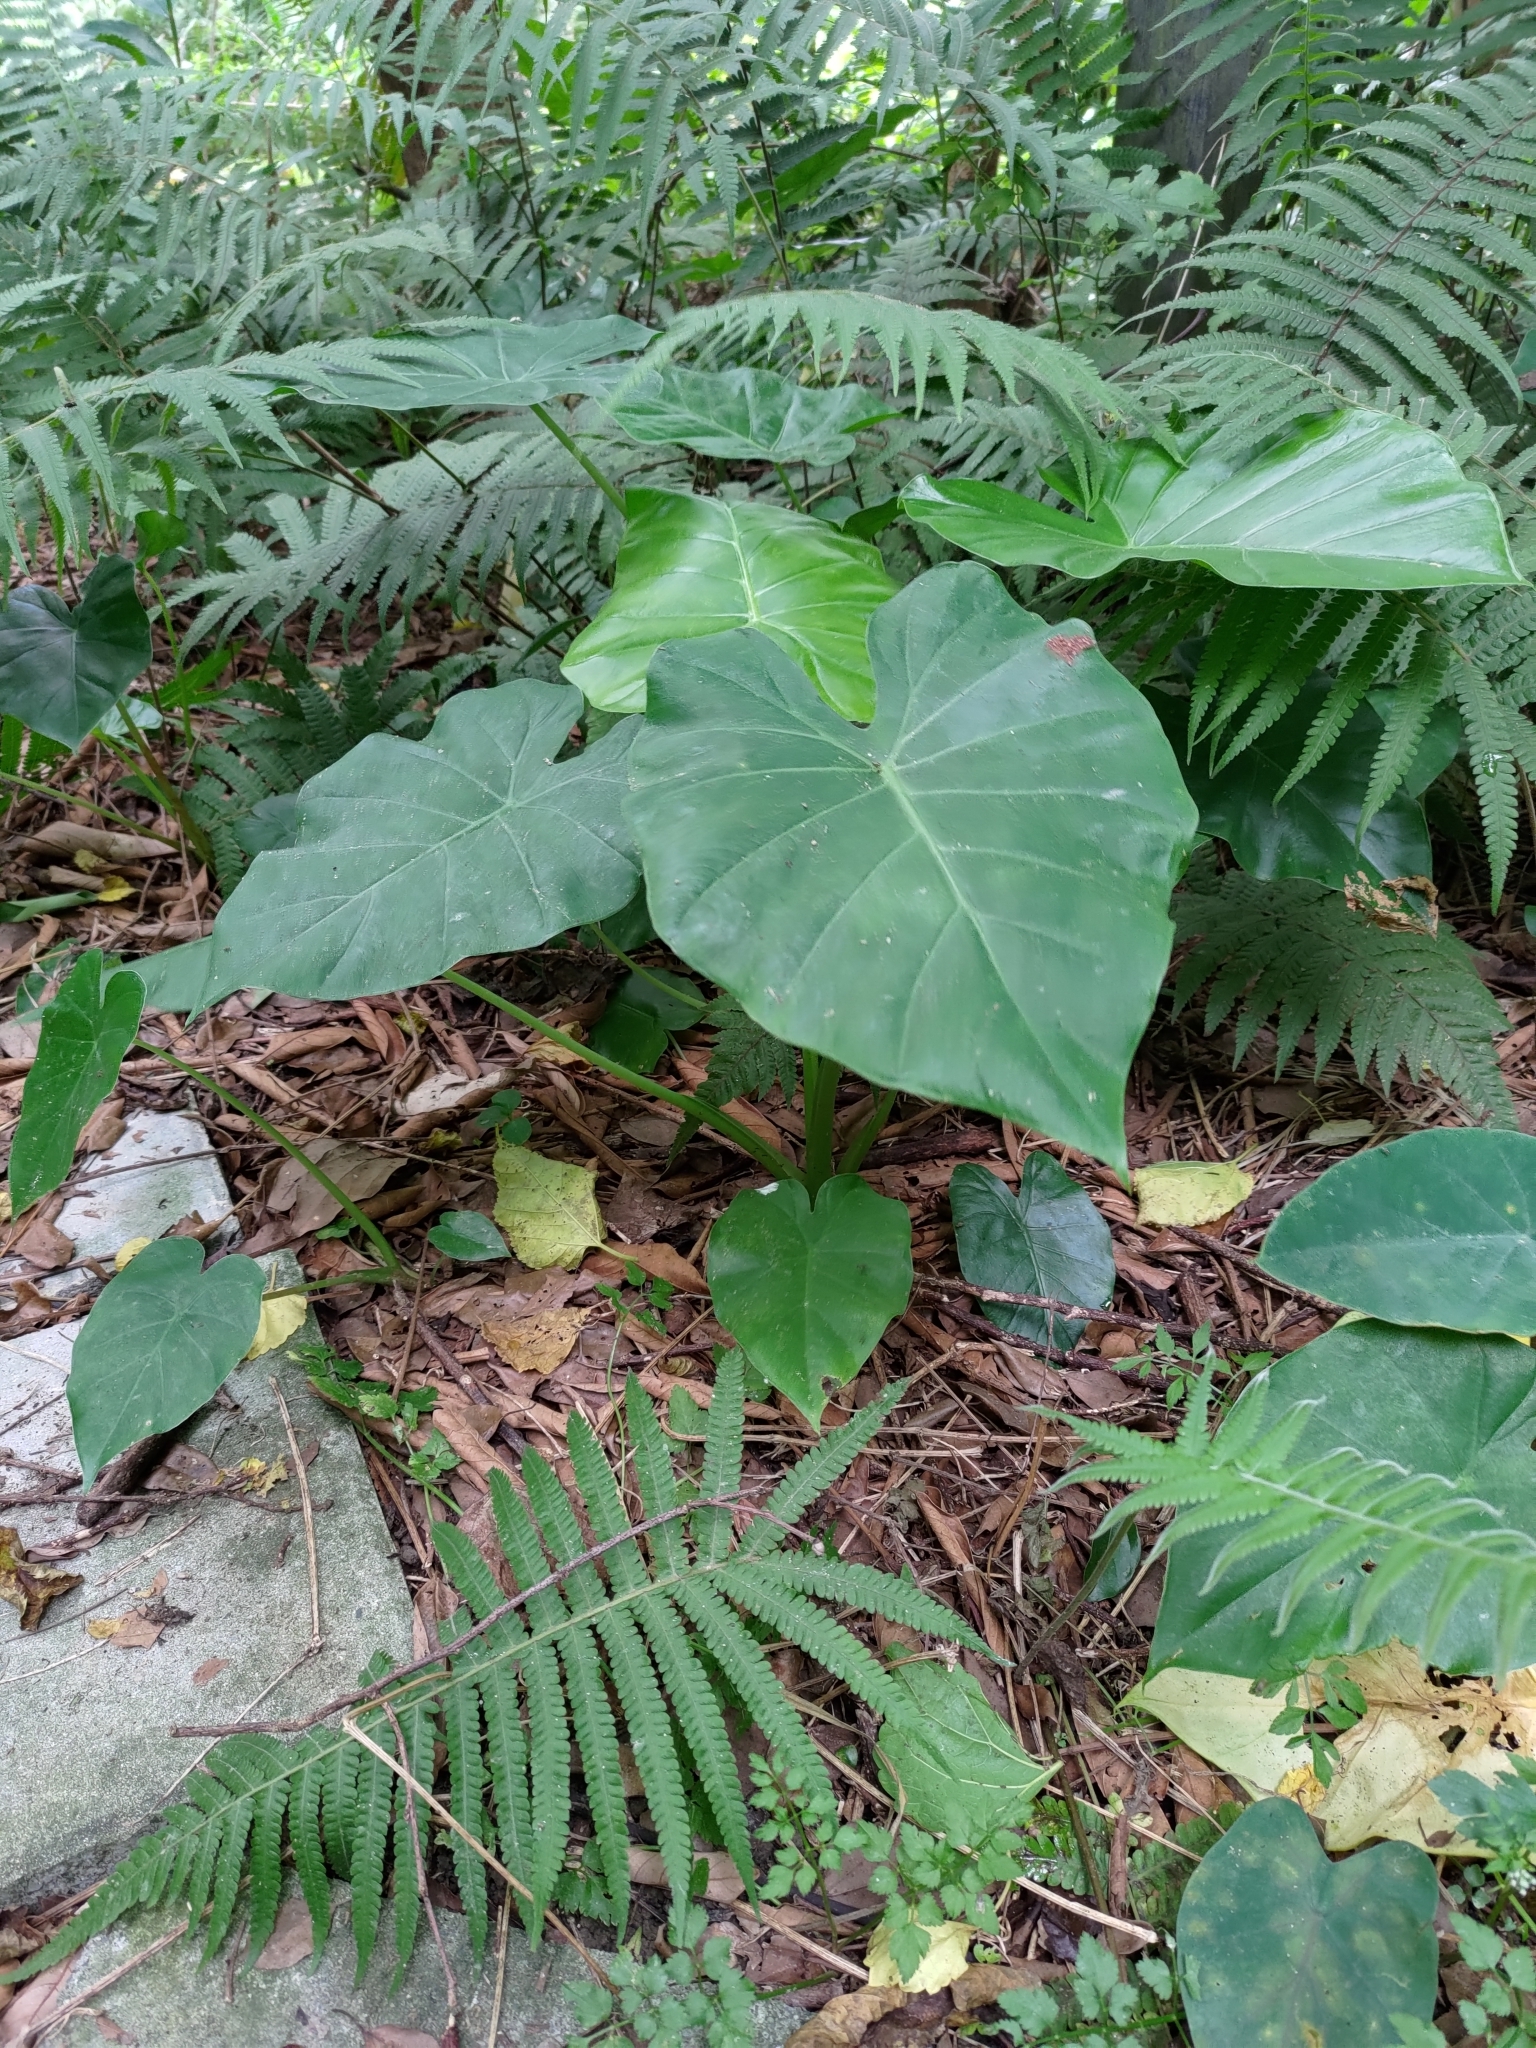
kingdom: Plantae
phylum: Tracheophyta
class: Liliopsida
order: Alismatales
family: Araceae
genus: Alocasia
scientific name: Alocasia odora
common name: Asian taro
